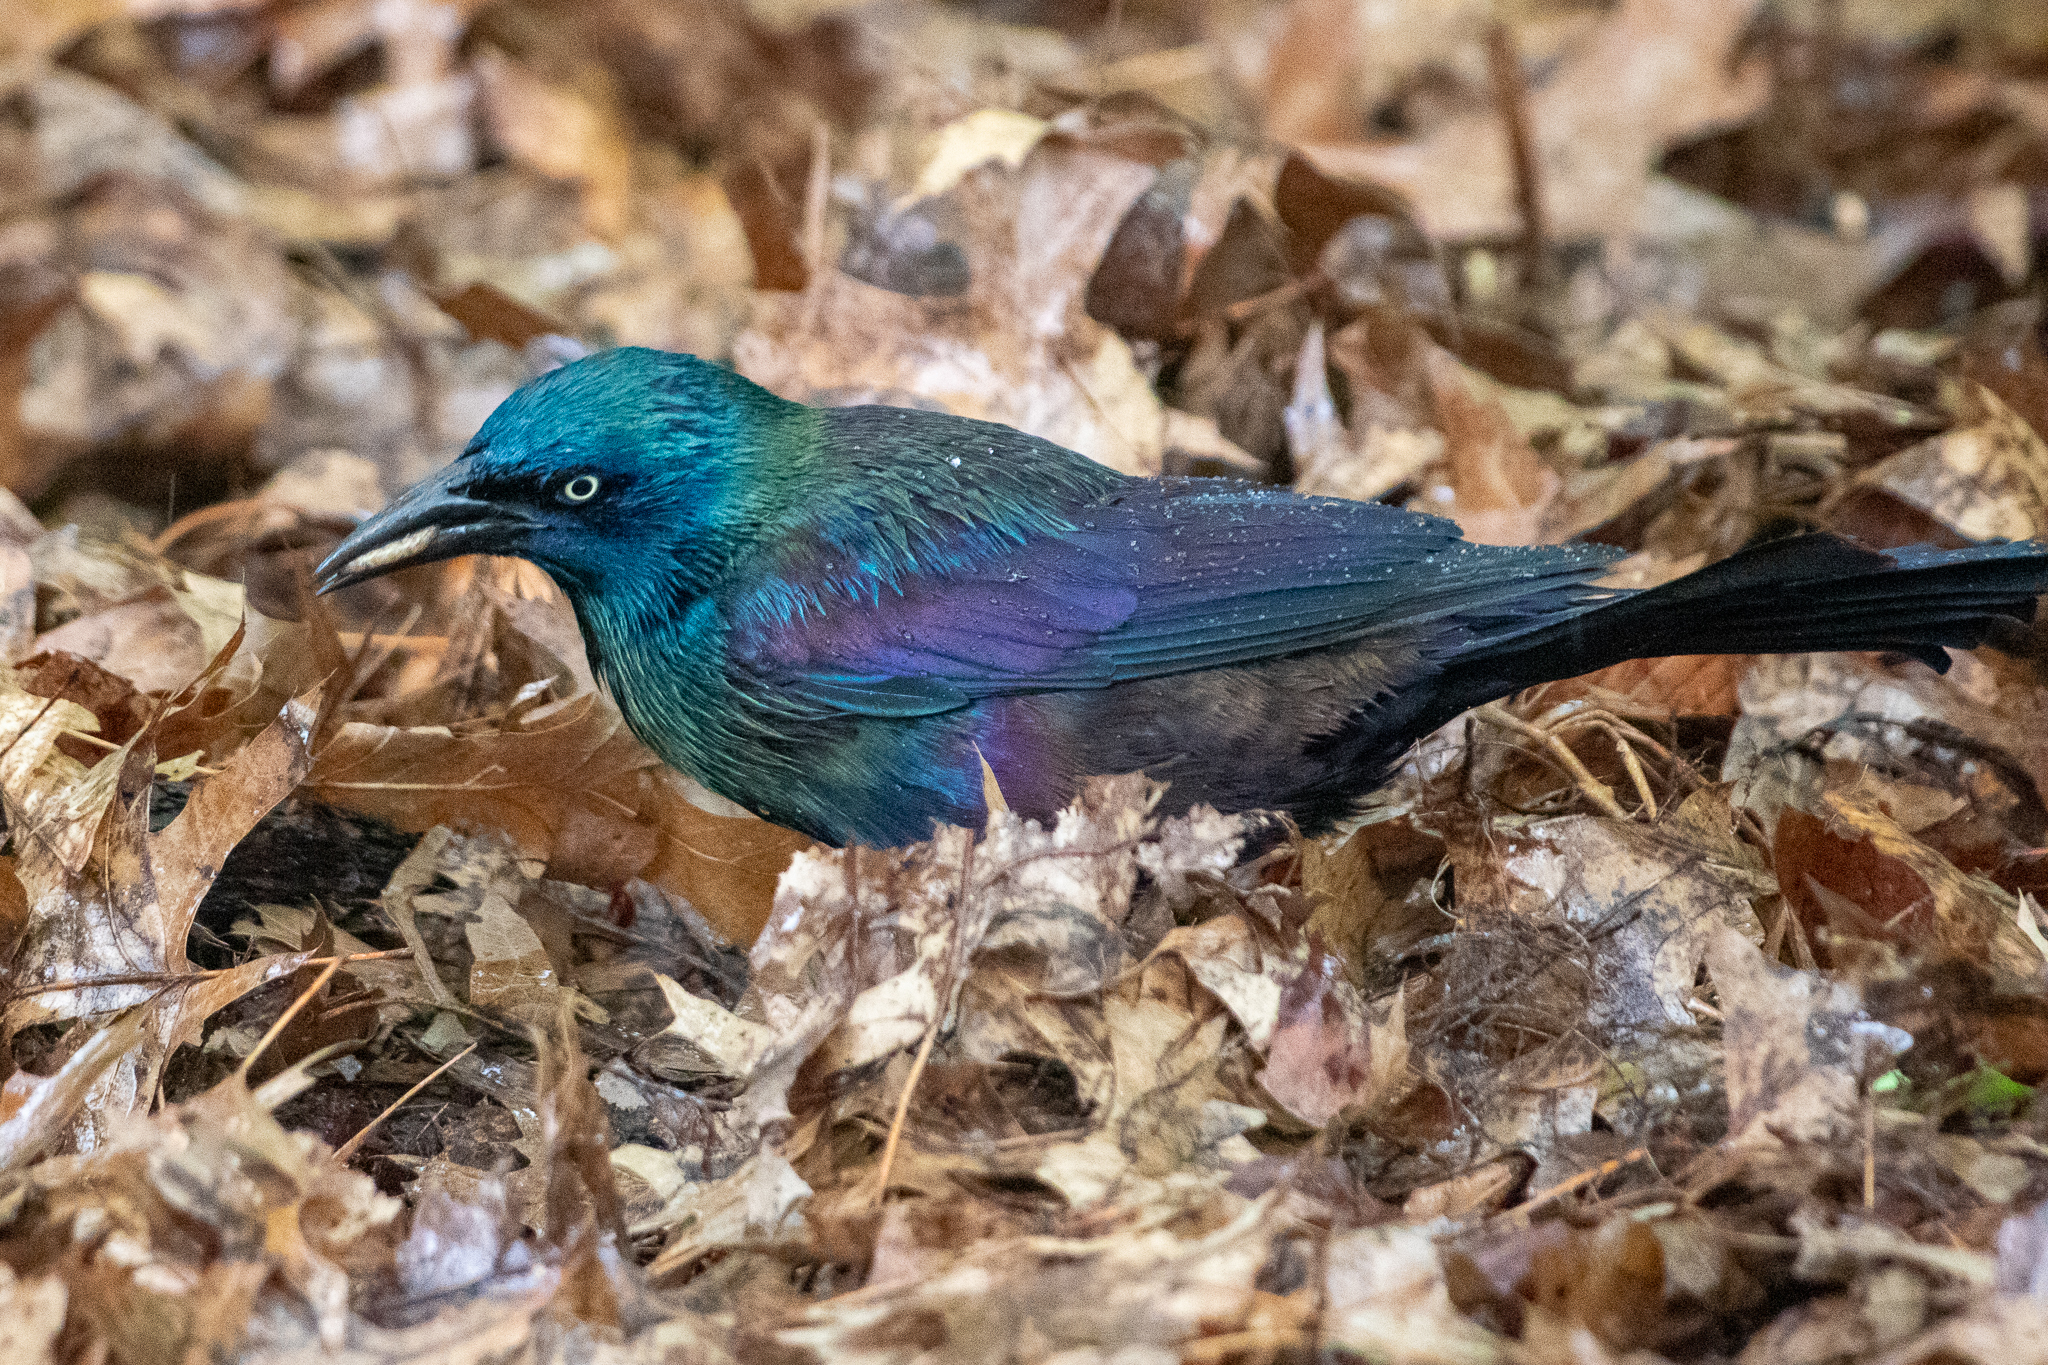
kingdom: Animalia
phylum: Chordata
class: Aves
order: Passeriformes
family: Icteridae
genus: Quiscalus
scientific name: Quiscalus quiscula
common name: Common grackle
